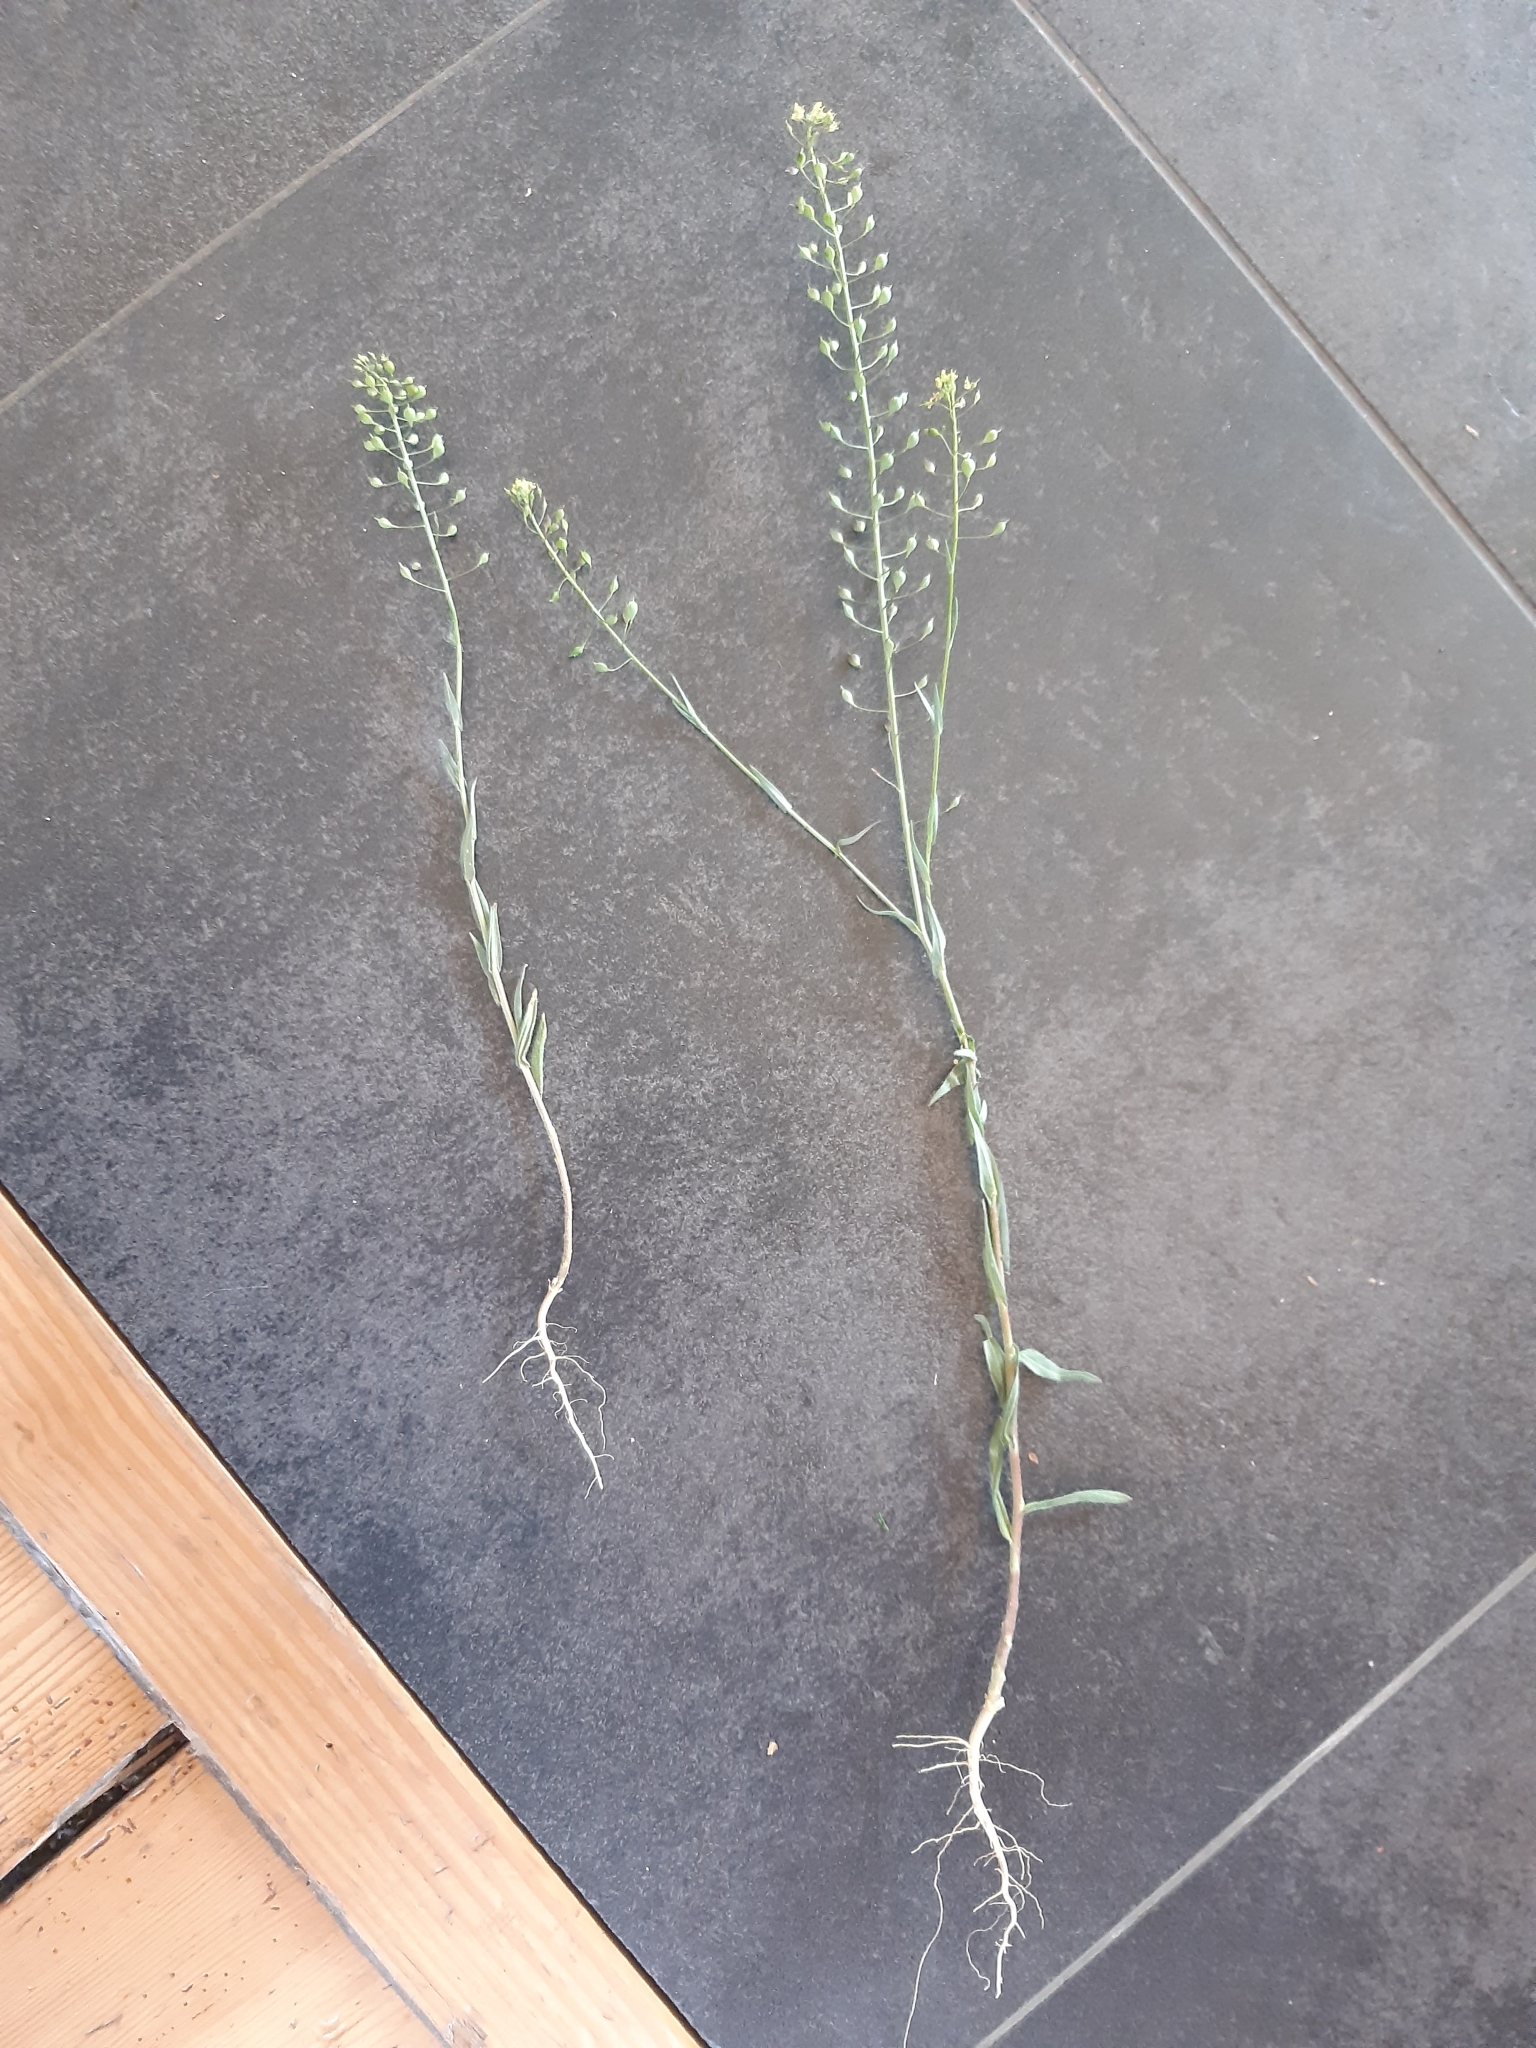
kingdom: Plantae
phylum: Tracheophyta
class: Magnoliopsida
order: Brassicales
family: Brassicaceae
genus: Camelina
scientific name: Camelina microcarpa
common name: Lesser gold-of-pleasure
